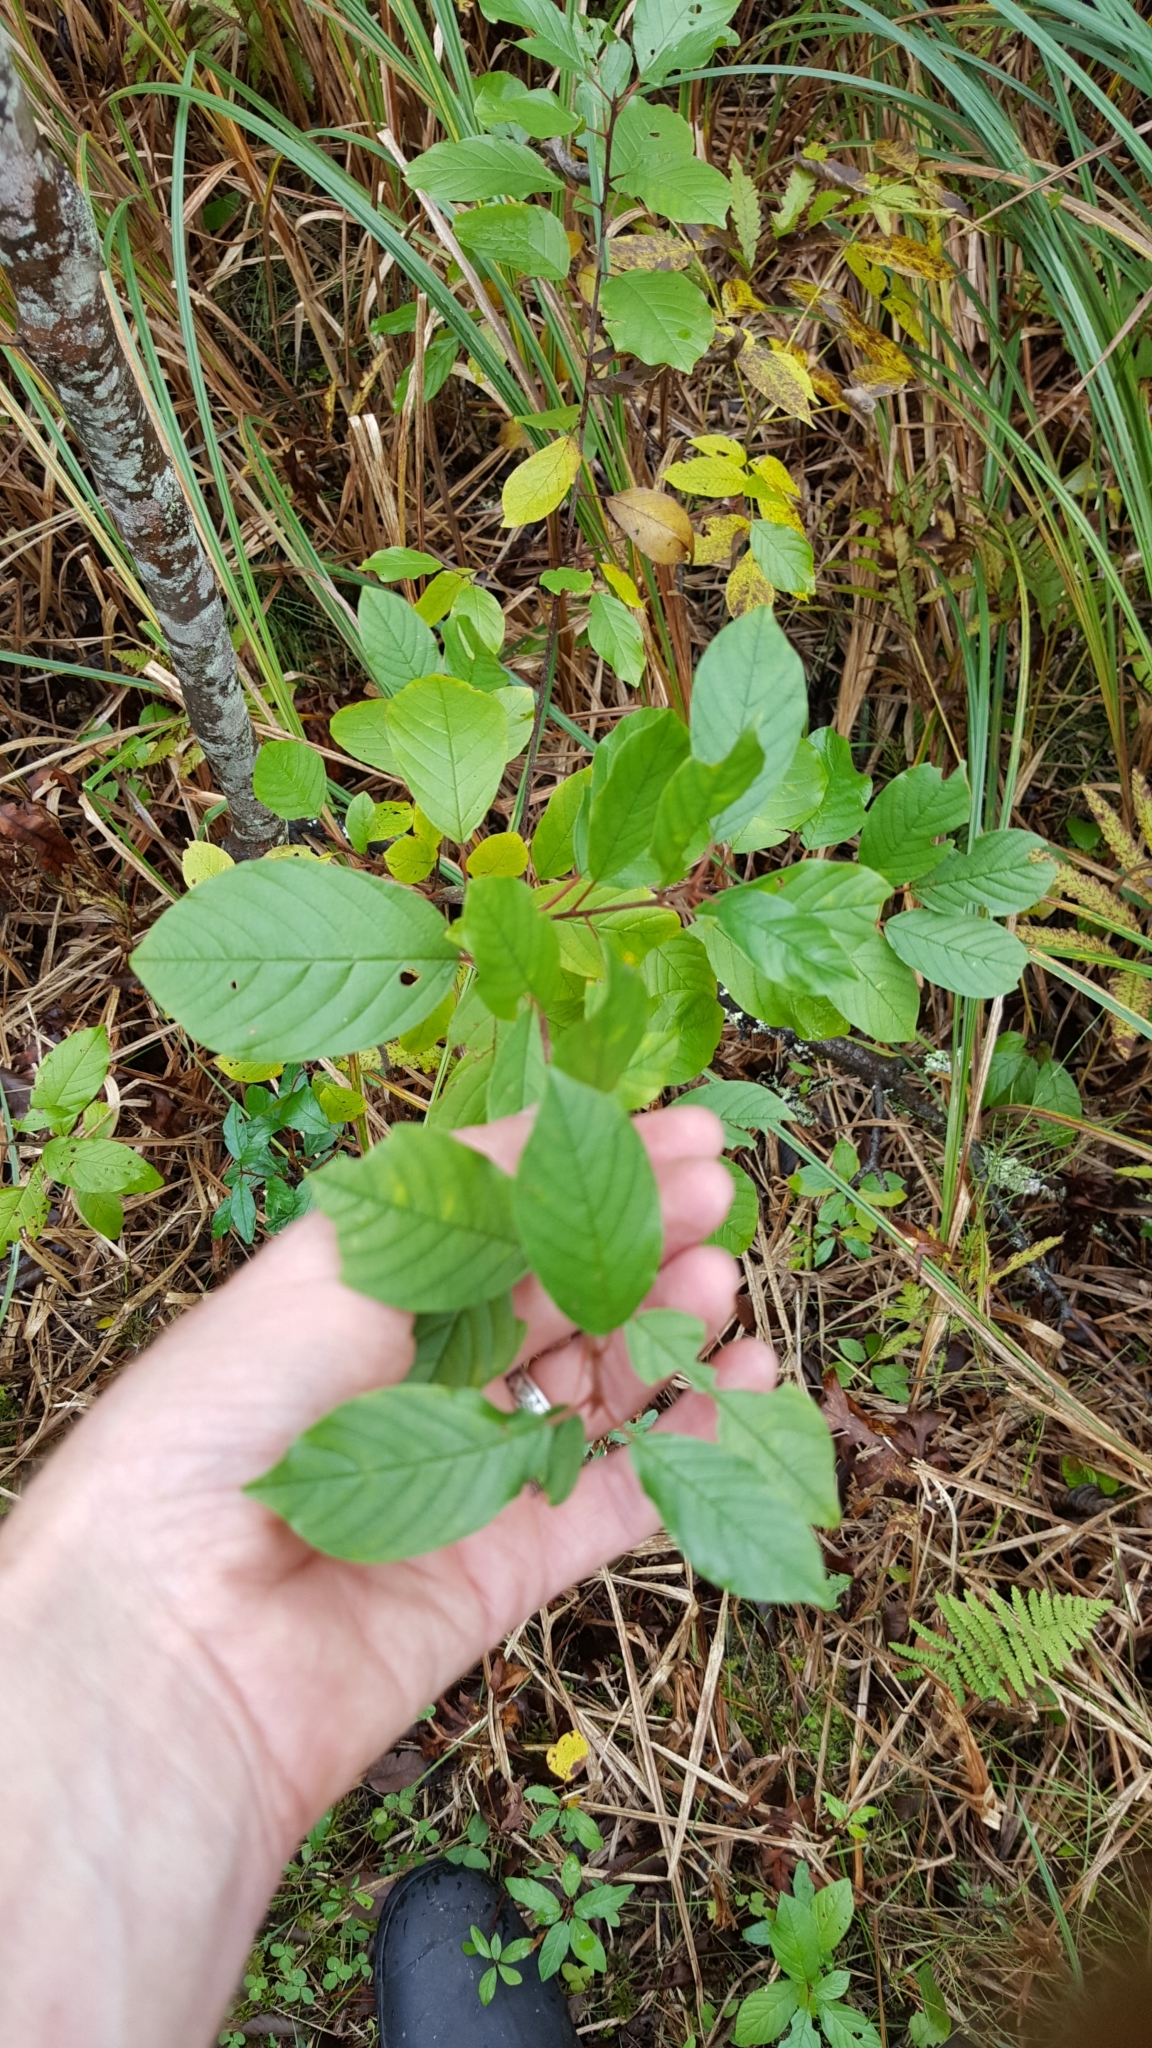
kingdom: Plantae
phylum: Tracheophyta
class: Magnoliopsida
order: Rosales
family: Rhamnaceae
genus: Frangula
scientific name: Frangula alnus
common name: Alder buckthorn
